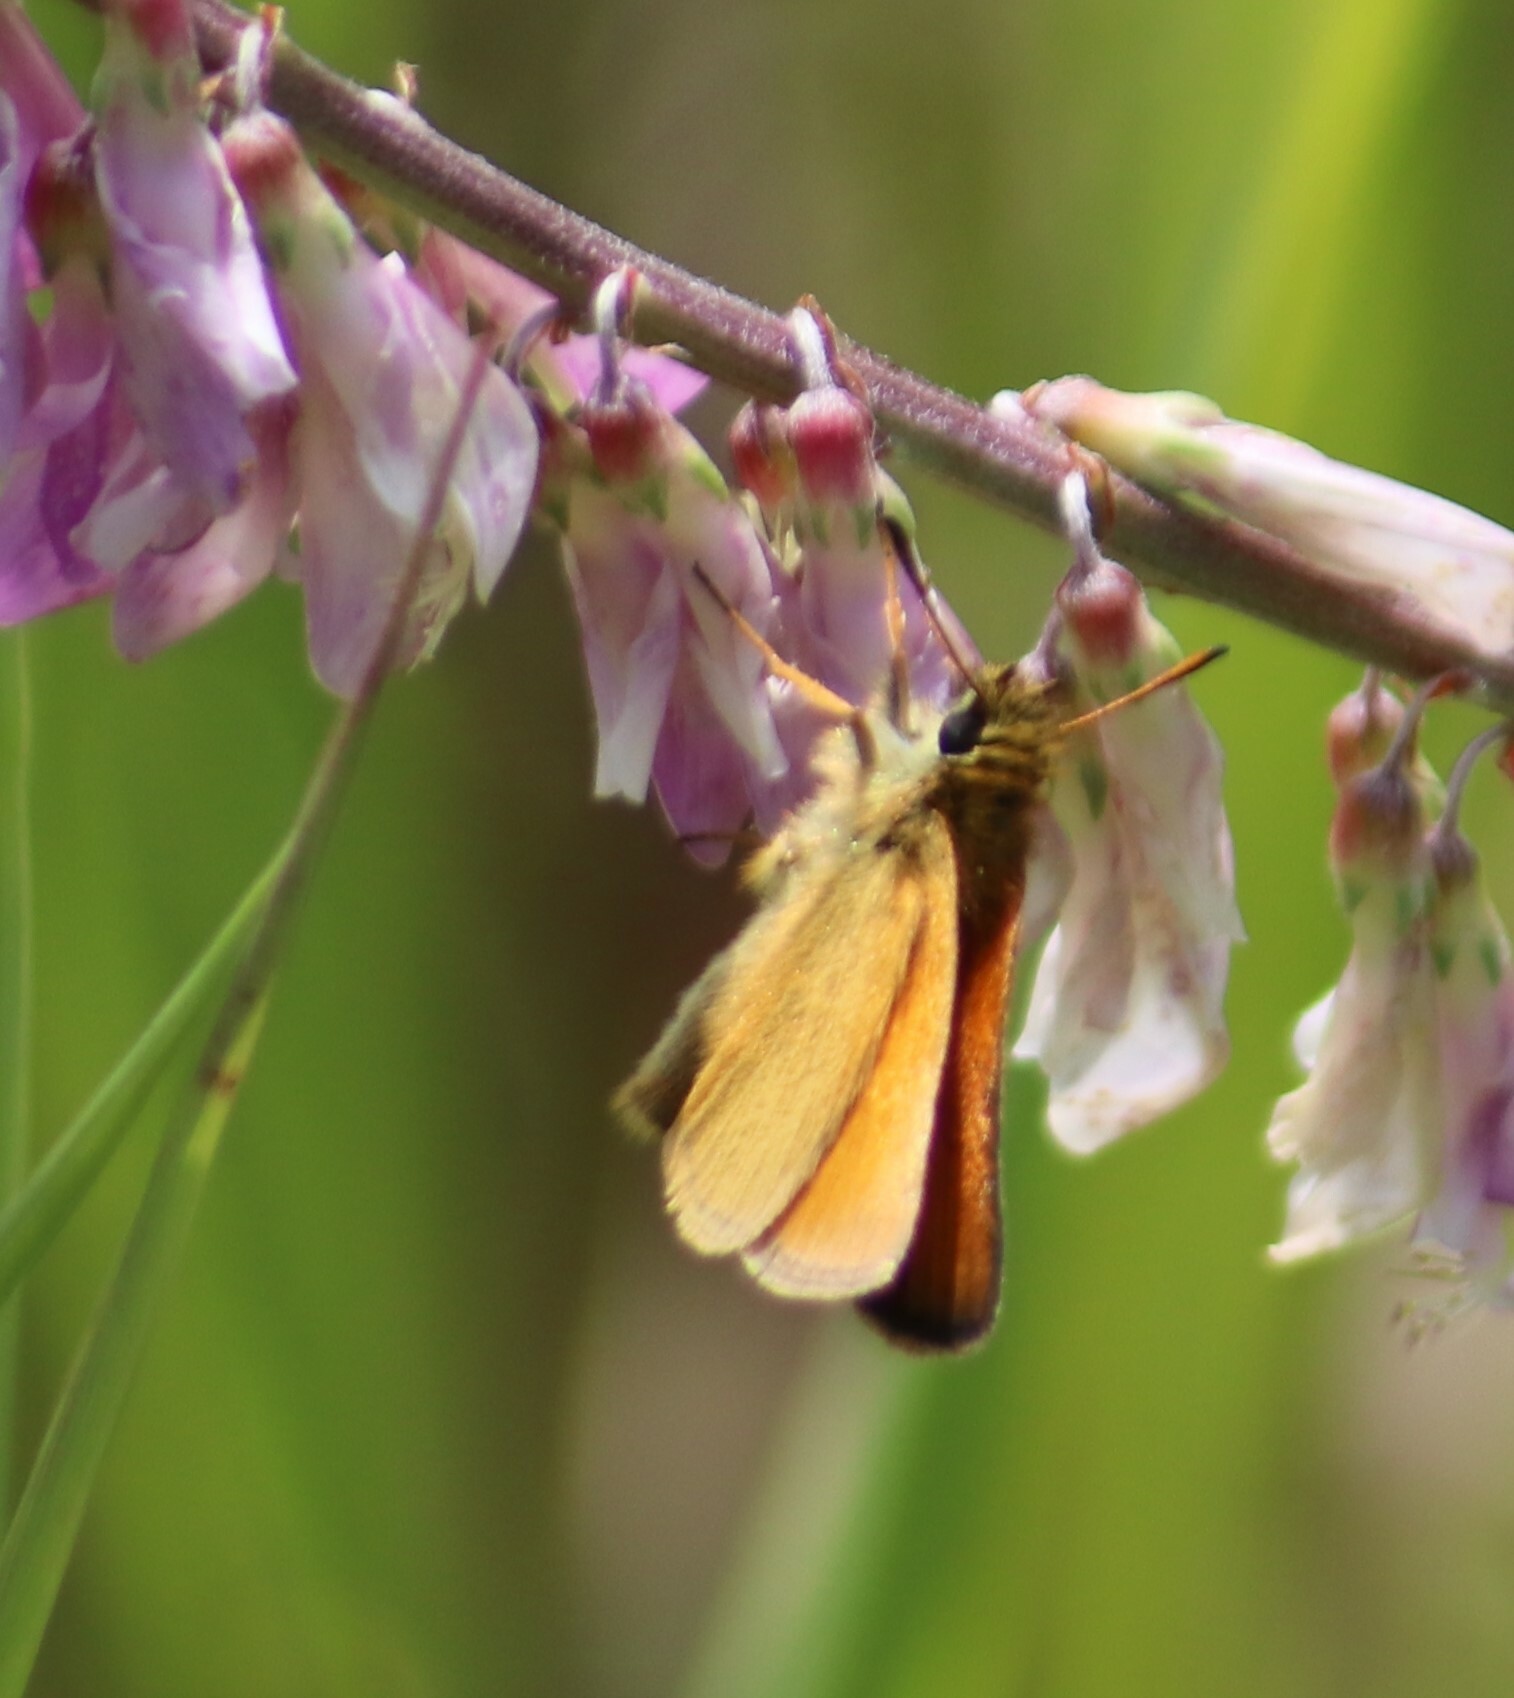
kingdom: Animalia
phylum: Arthropoda
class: Insecta
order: Lepidoptera
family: Hesperiidae
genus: Thymelicus
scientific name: Thymelicus lineola
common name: Essex skipper
